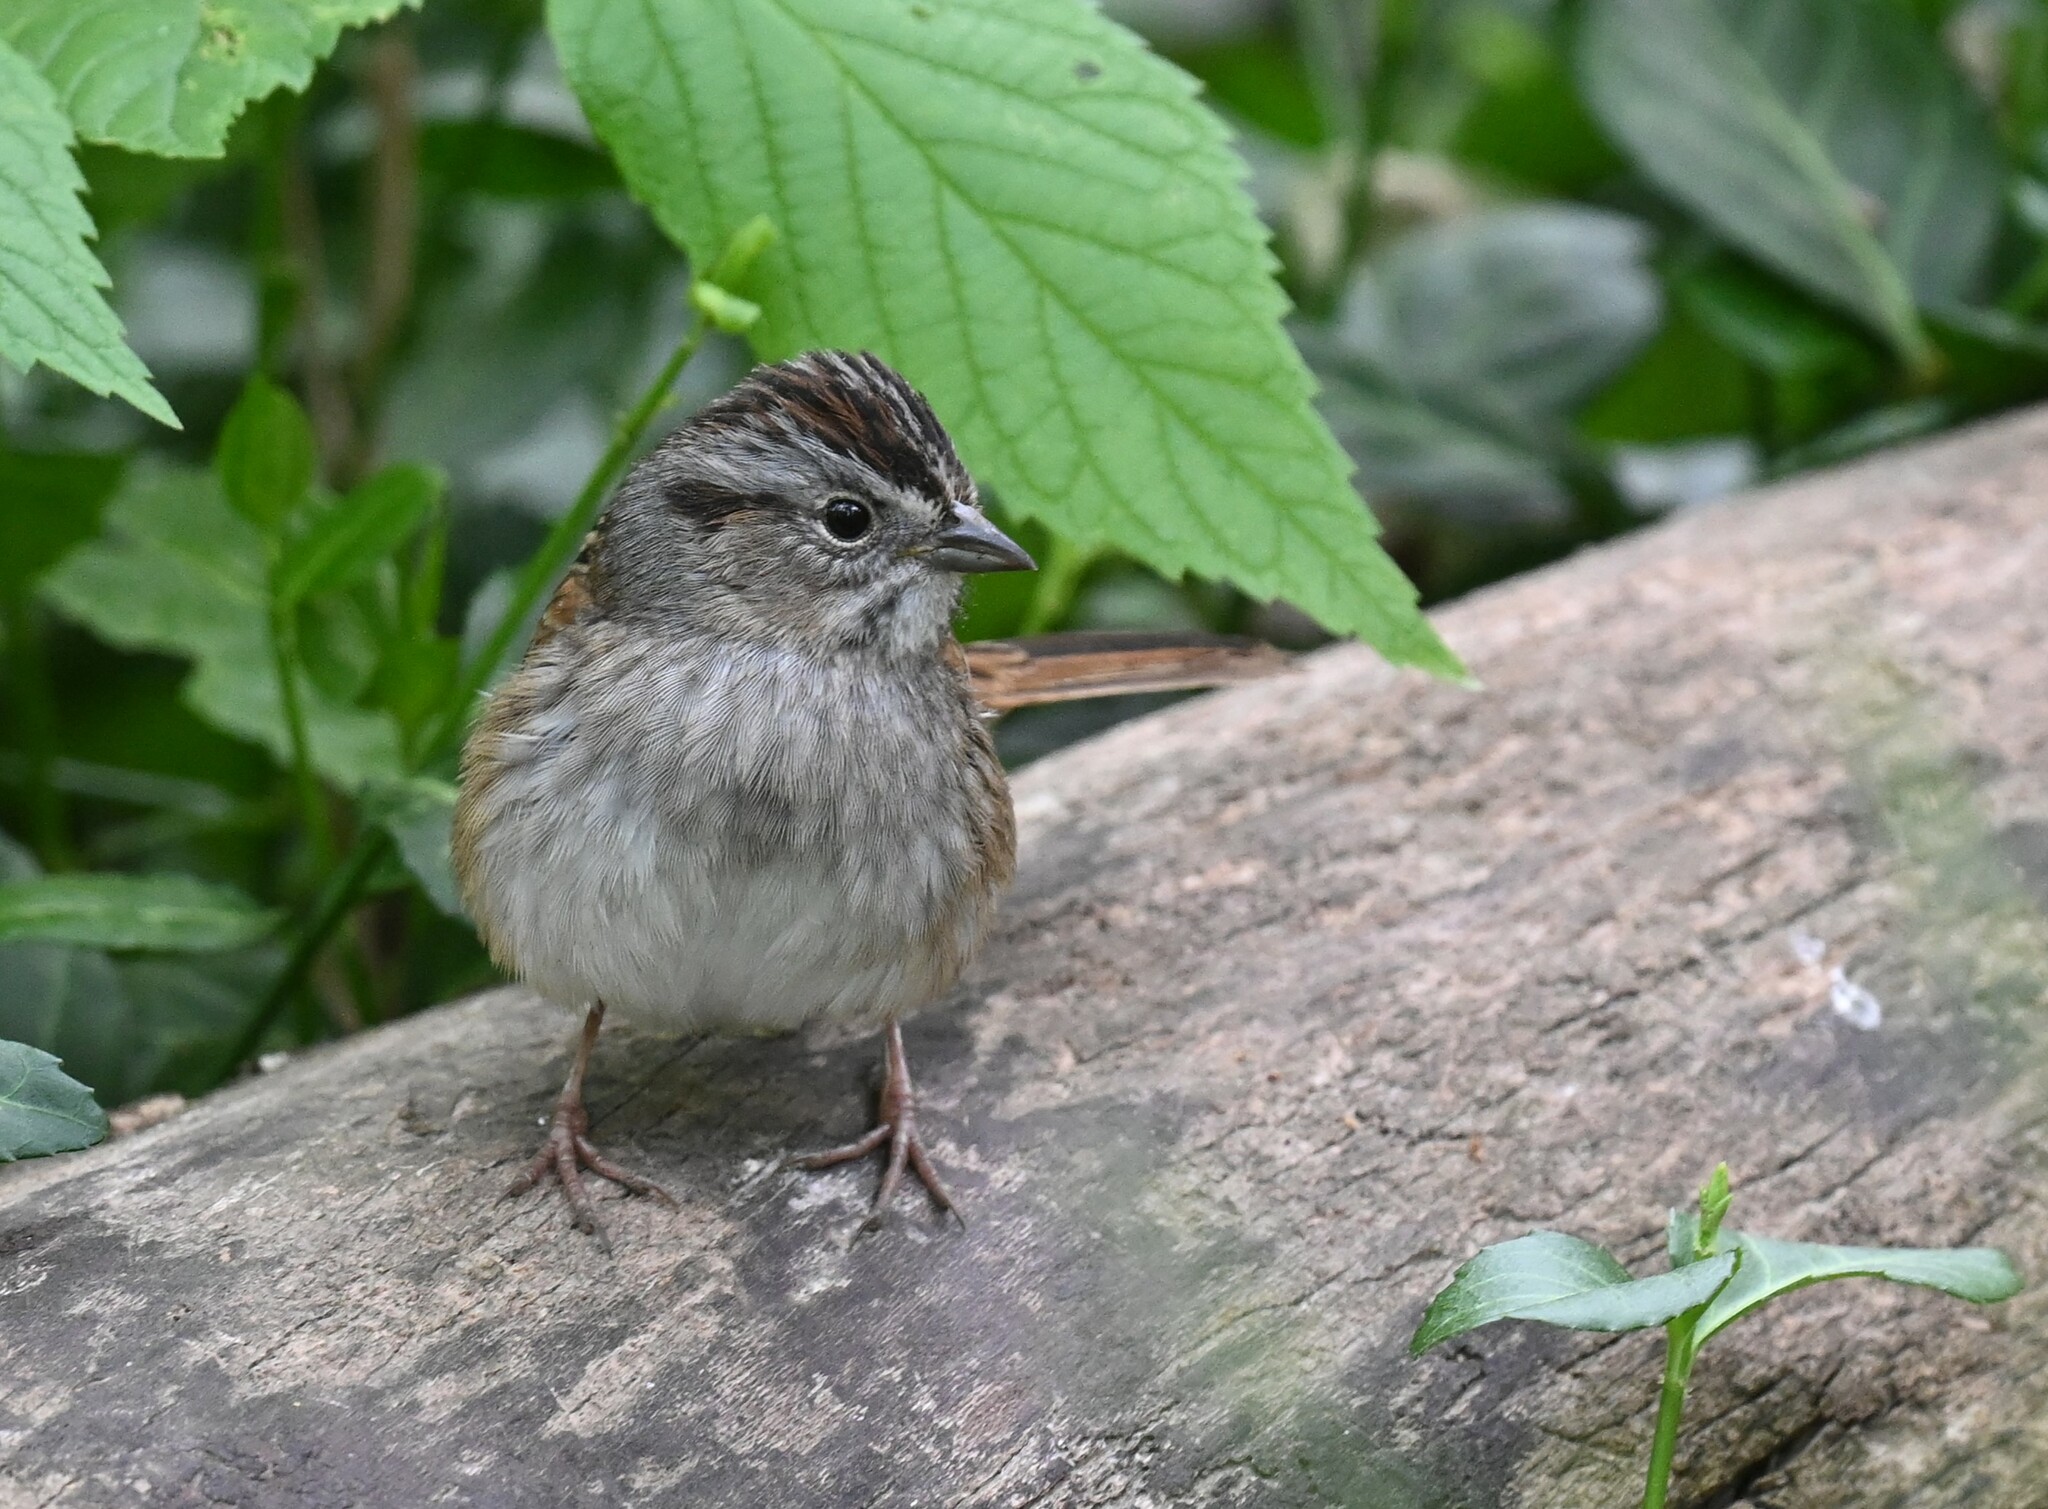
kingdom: Animalia
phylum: Chordata
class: Aves
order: Passeriformes
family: Passerellidae
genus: Melospiza
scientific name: Melospiza georgiana
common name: Swamp sparrow
